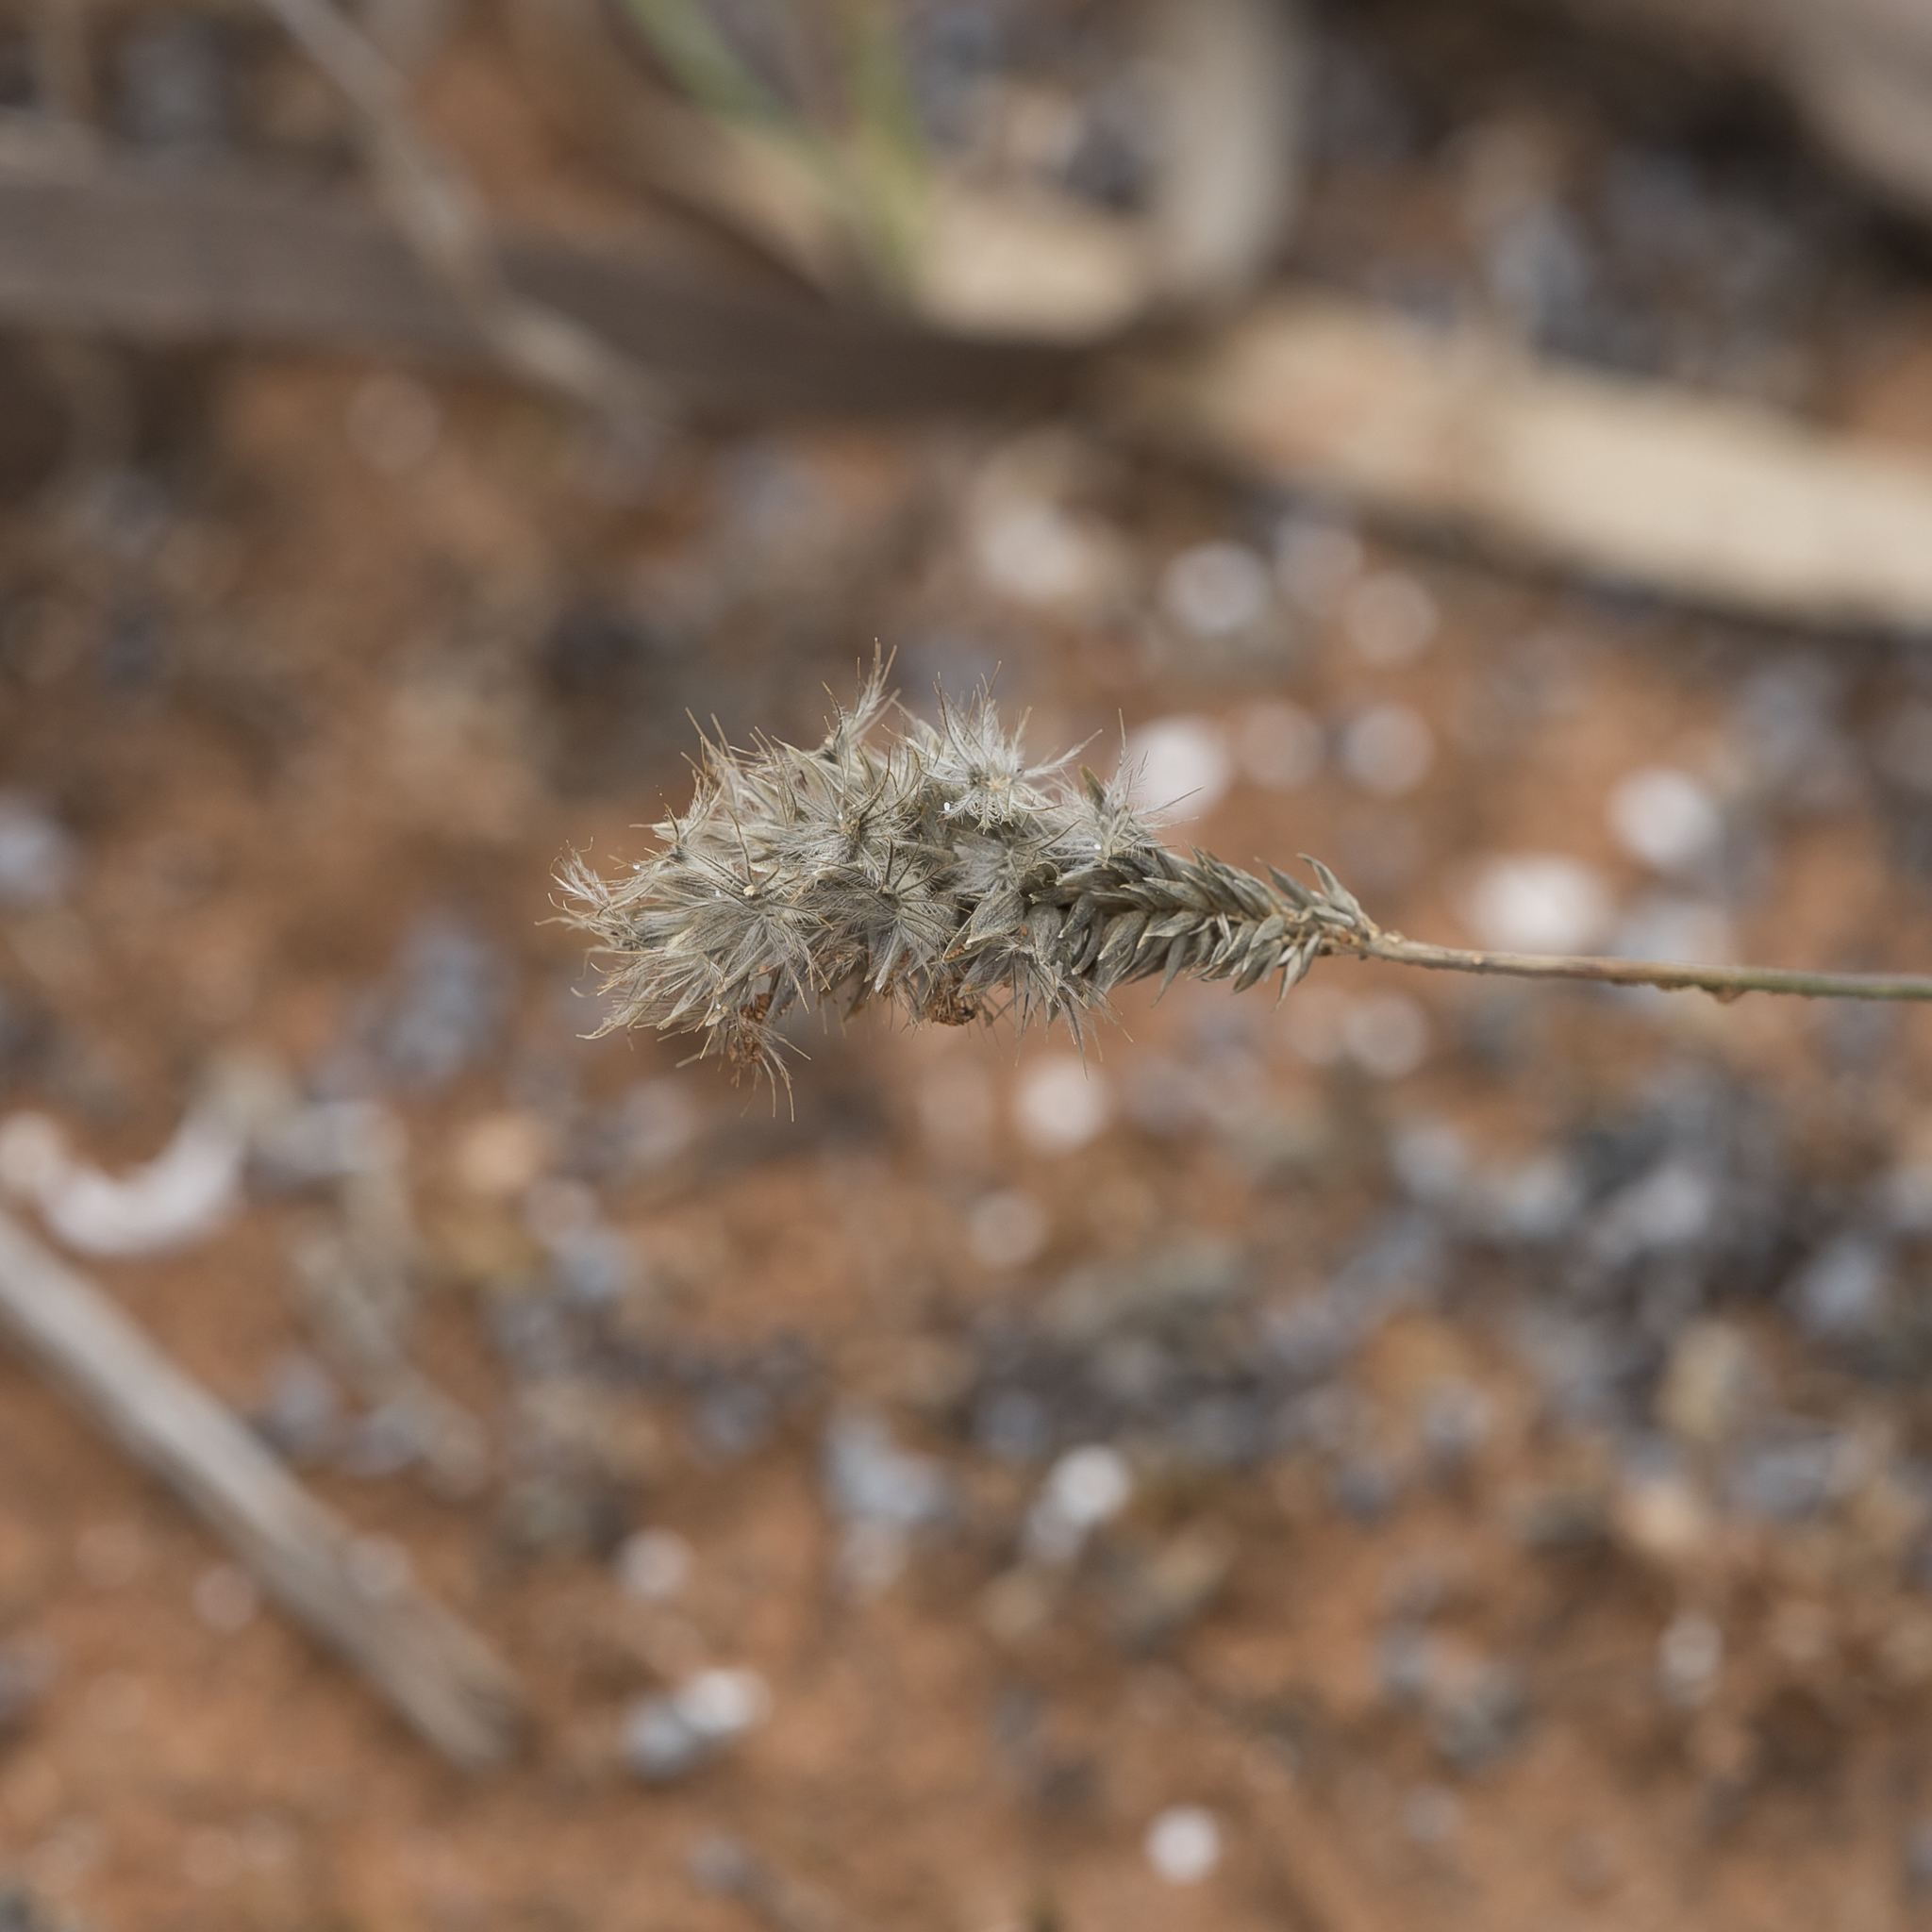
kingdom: Plantae
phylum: Tracheophyta
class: Liliopsida
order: Poales
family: Poaceae
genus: Enneapogon
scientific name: Enneapogon nigricans
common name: Pappus grass
